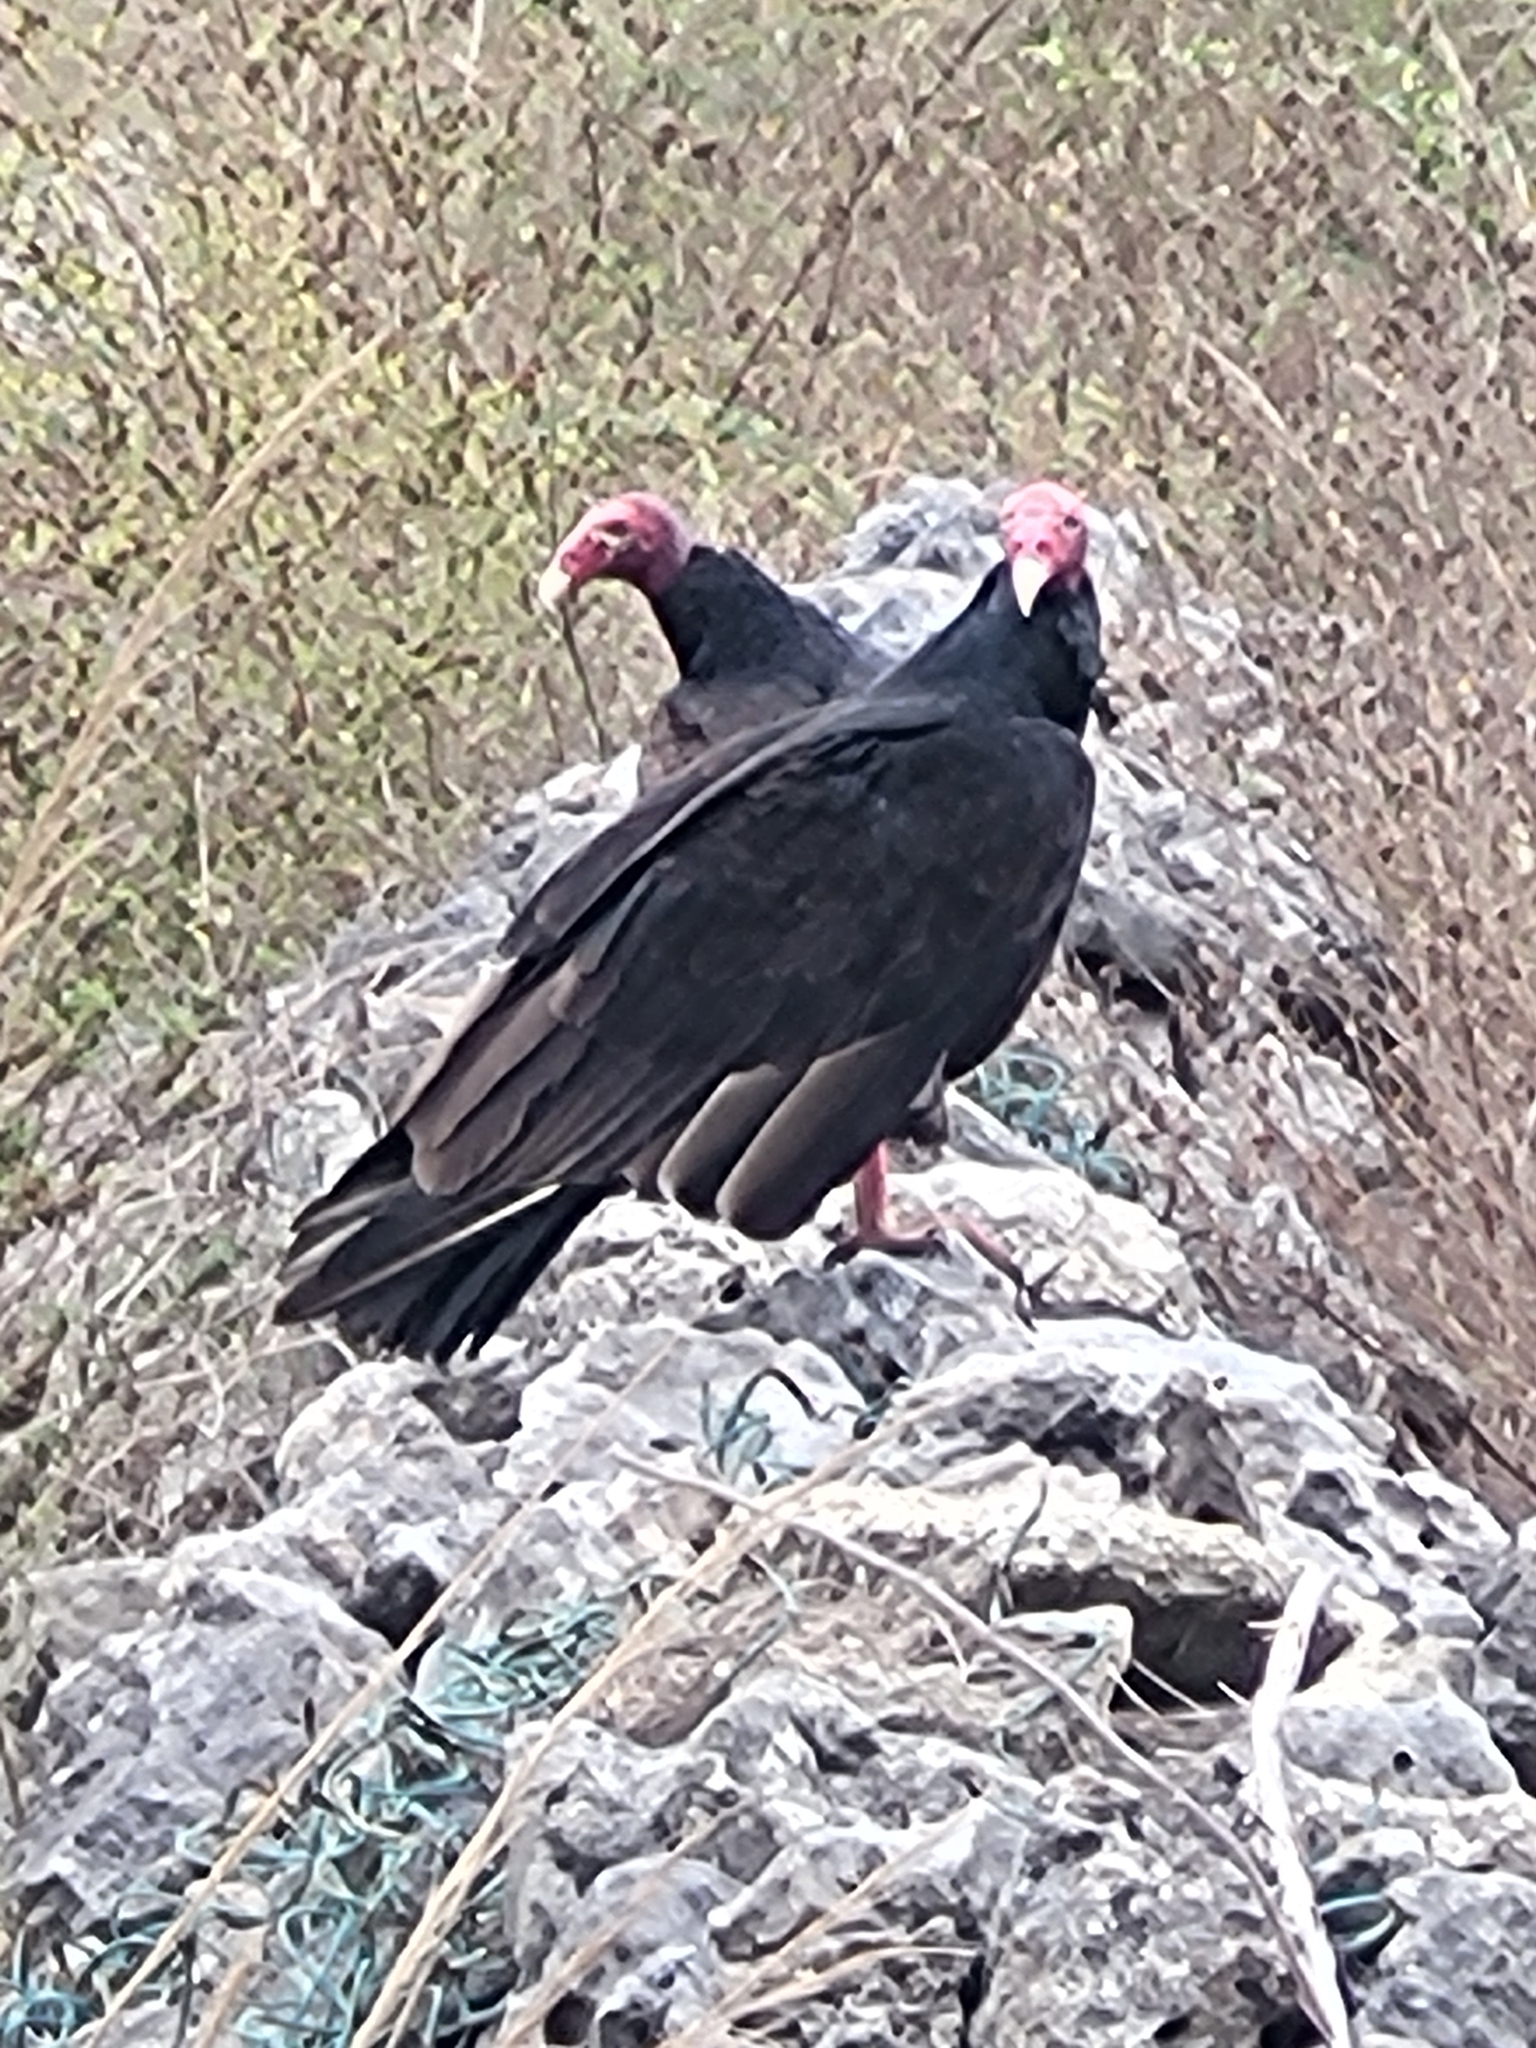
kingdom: Animalia
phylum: Chordata
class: Aves
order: Accipitriformes
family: Cathartidae
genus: Cathartes
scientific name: Cathartes aura
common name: Turkey vulture
